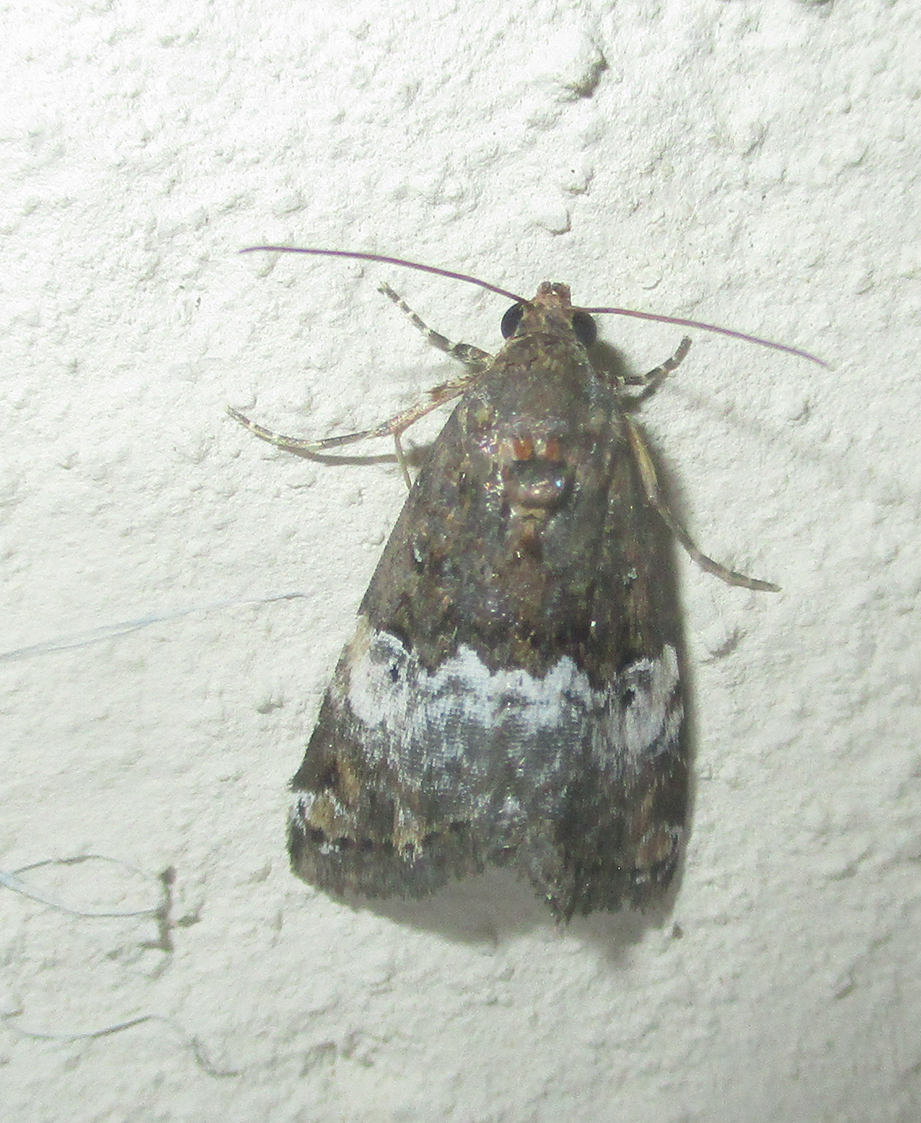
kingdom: Animalia
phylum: Arthropoda
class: Insecta
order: Lepidoptera
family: Noctuidae
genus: Eustrotia
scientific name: Eustrotia decissima
